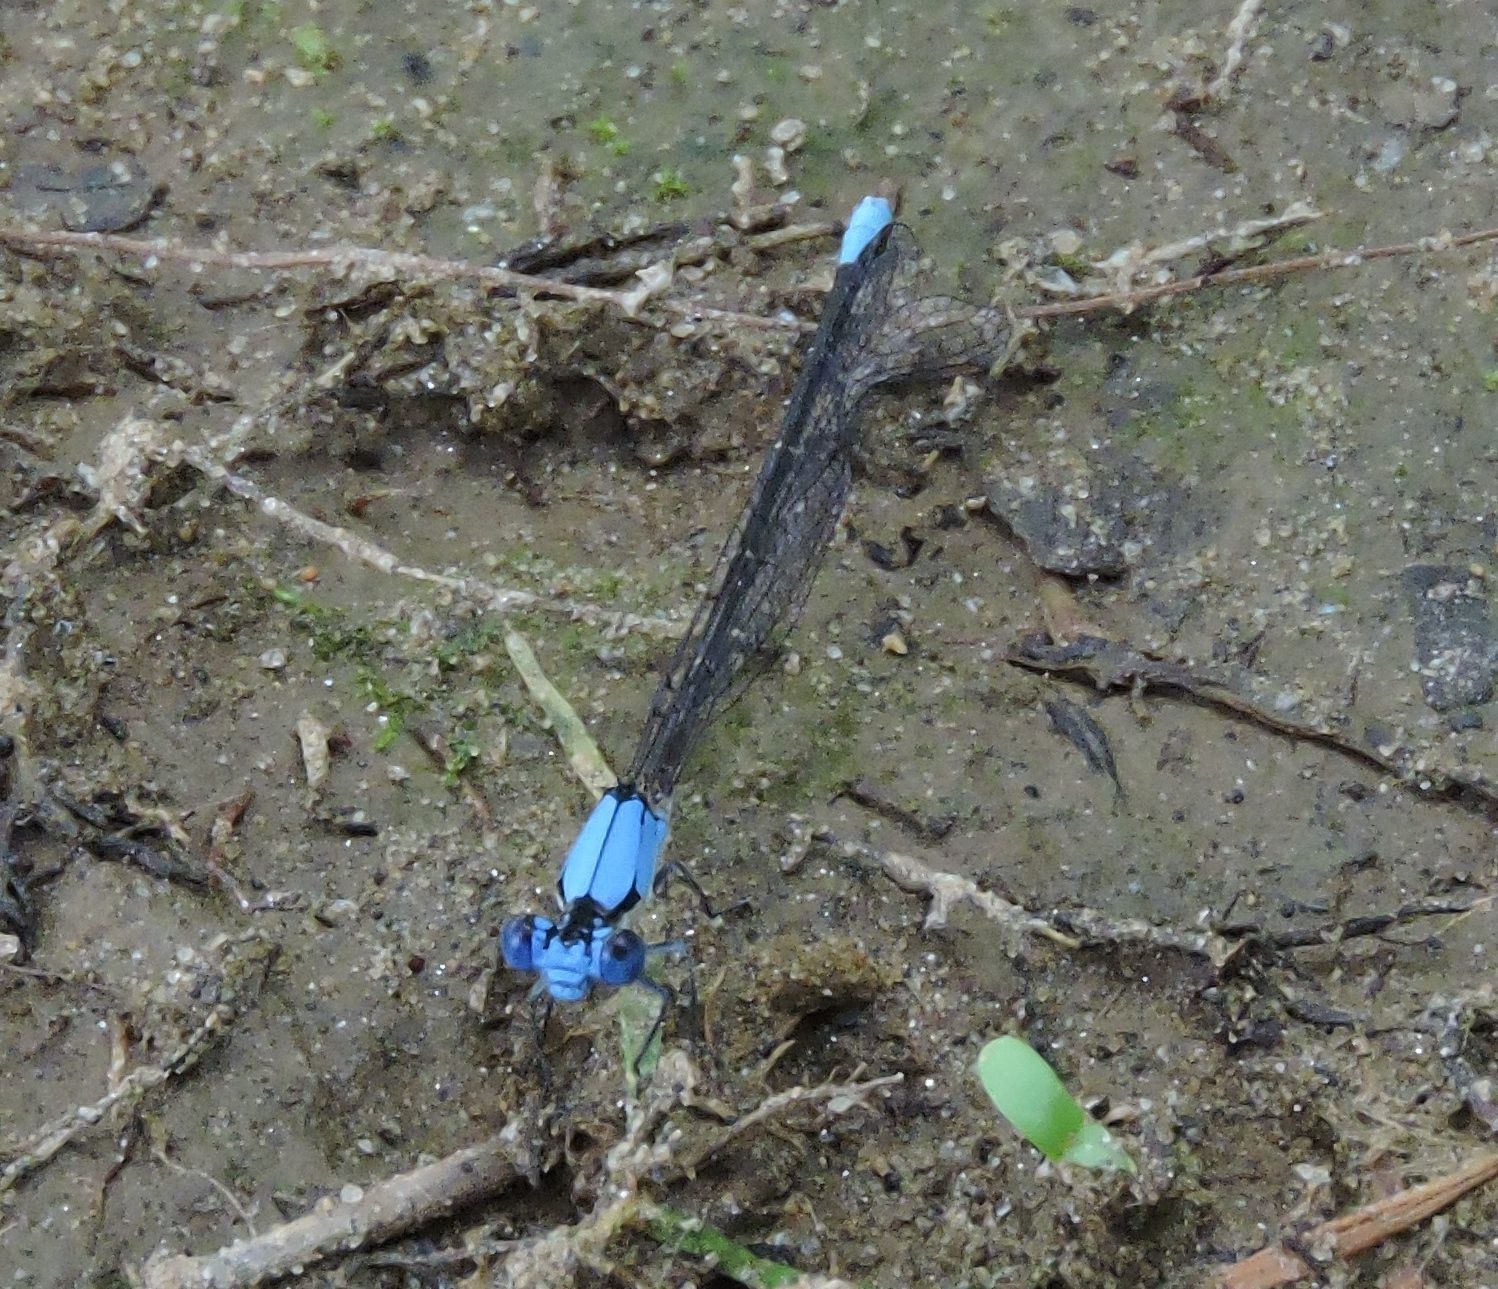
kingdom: Animalia
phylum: Arthropoda
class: Insecta
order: Odonata
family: Coenagrionidae
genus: Argia
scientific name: Argia apicalis
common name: Blue-fronted dancer
